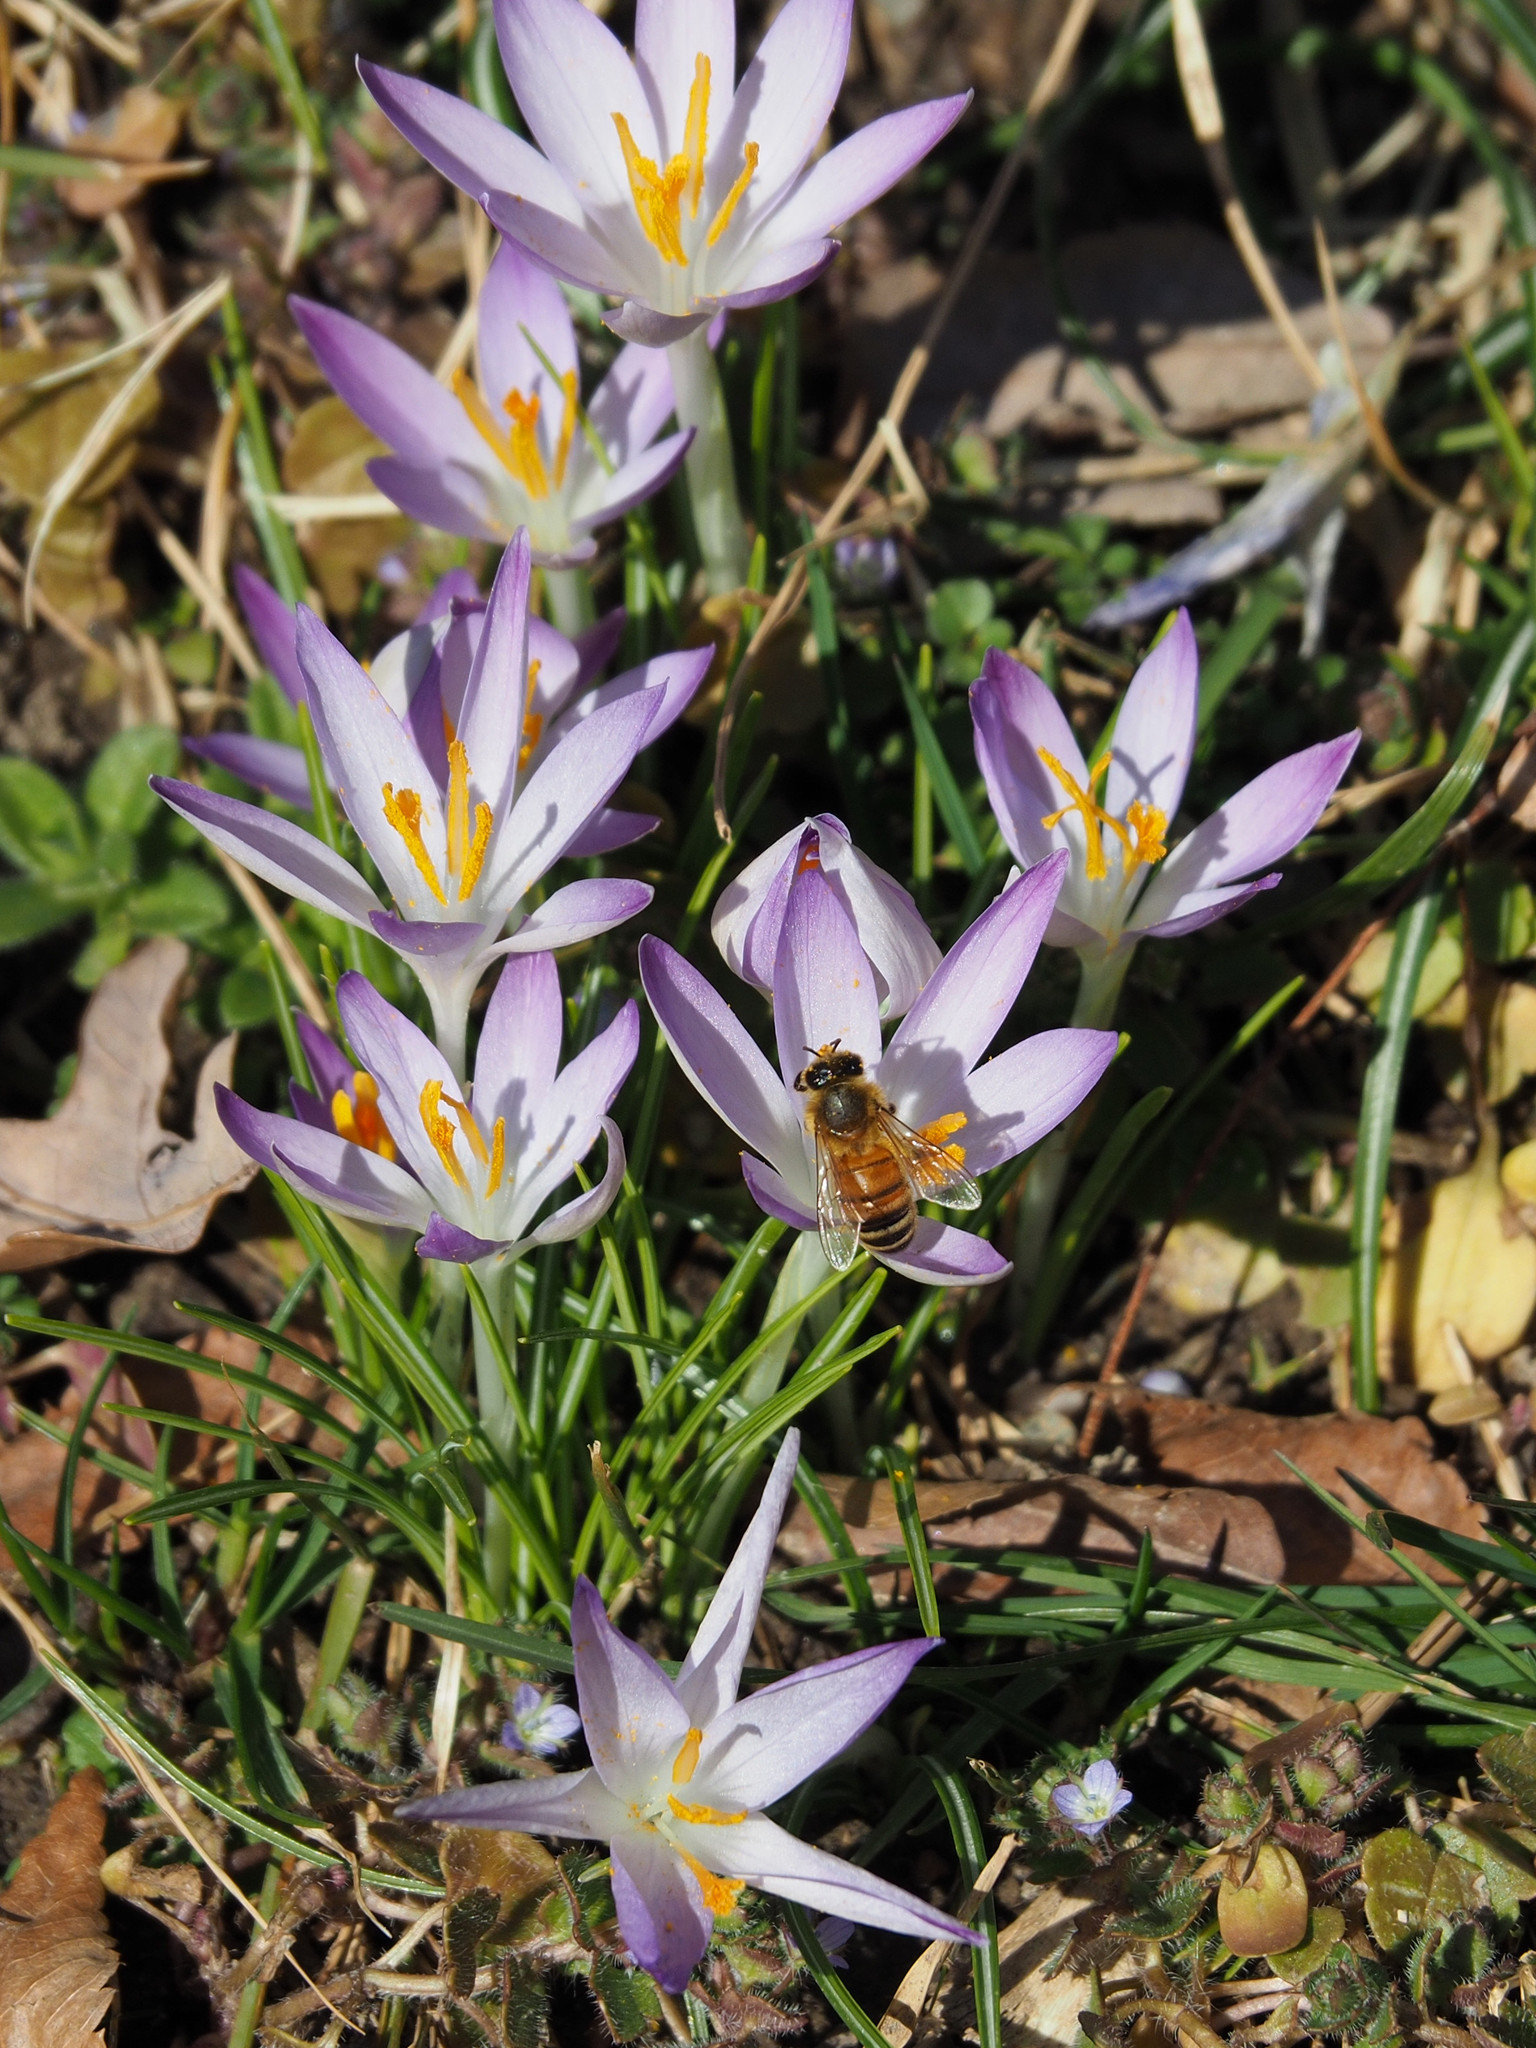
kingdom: Animalia
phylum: Arthropoda
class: Insecta
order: Hymenoptera
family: Apidae
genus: Apis
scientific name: Apis mellifera
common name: Honey bee
